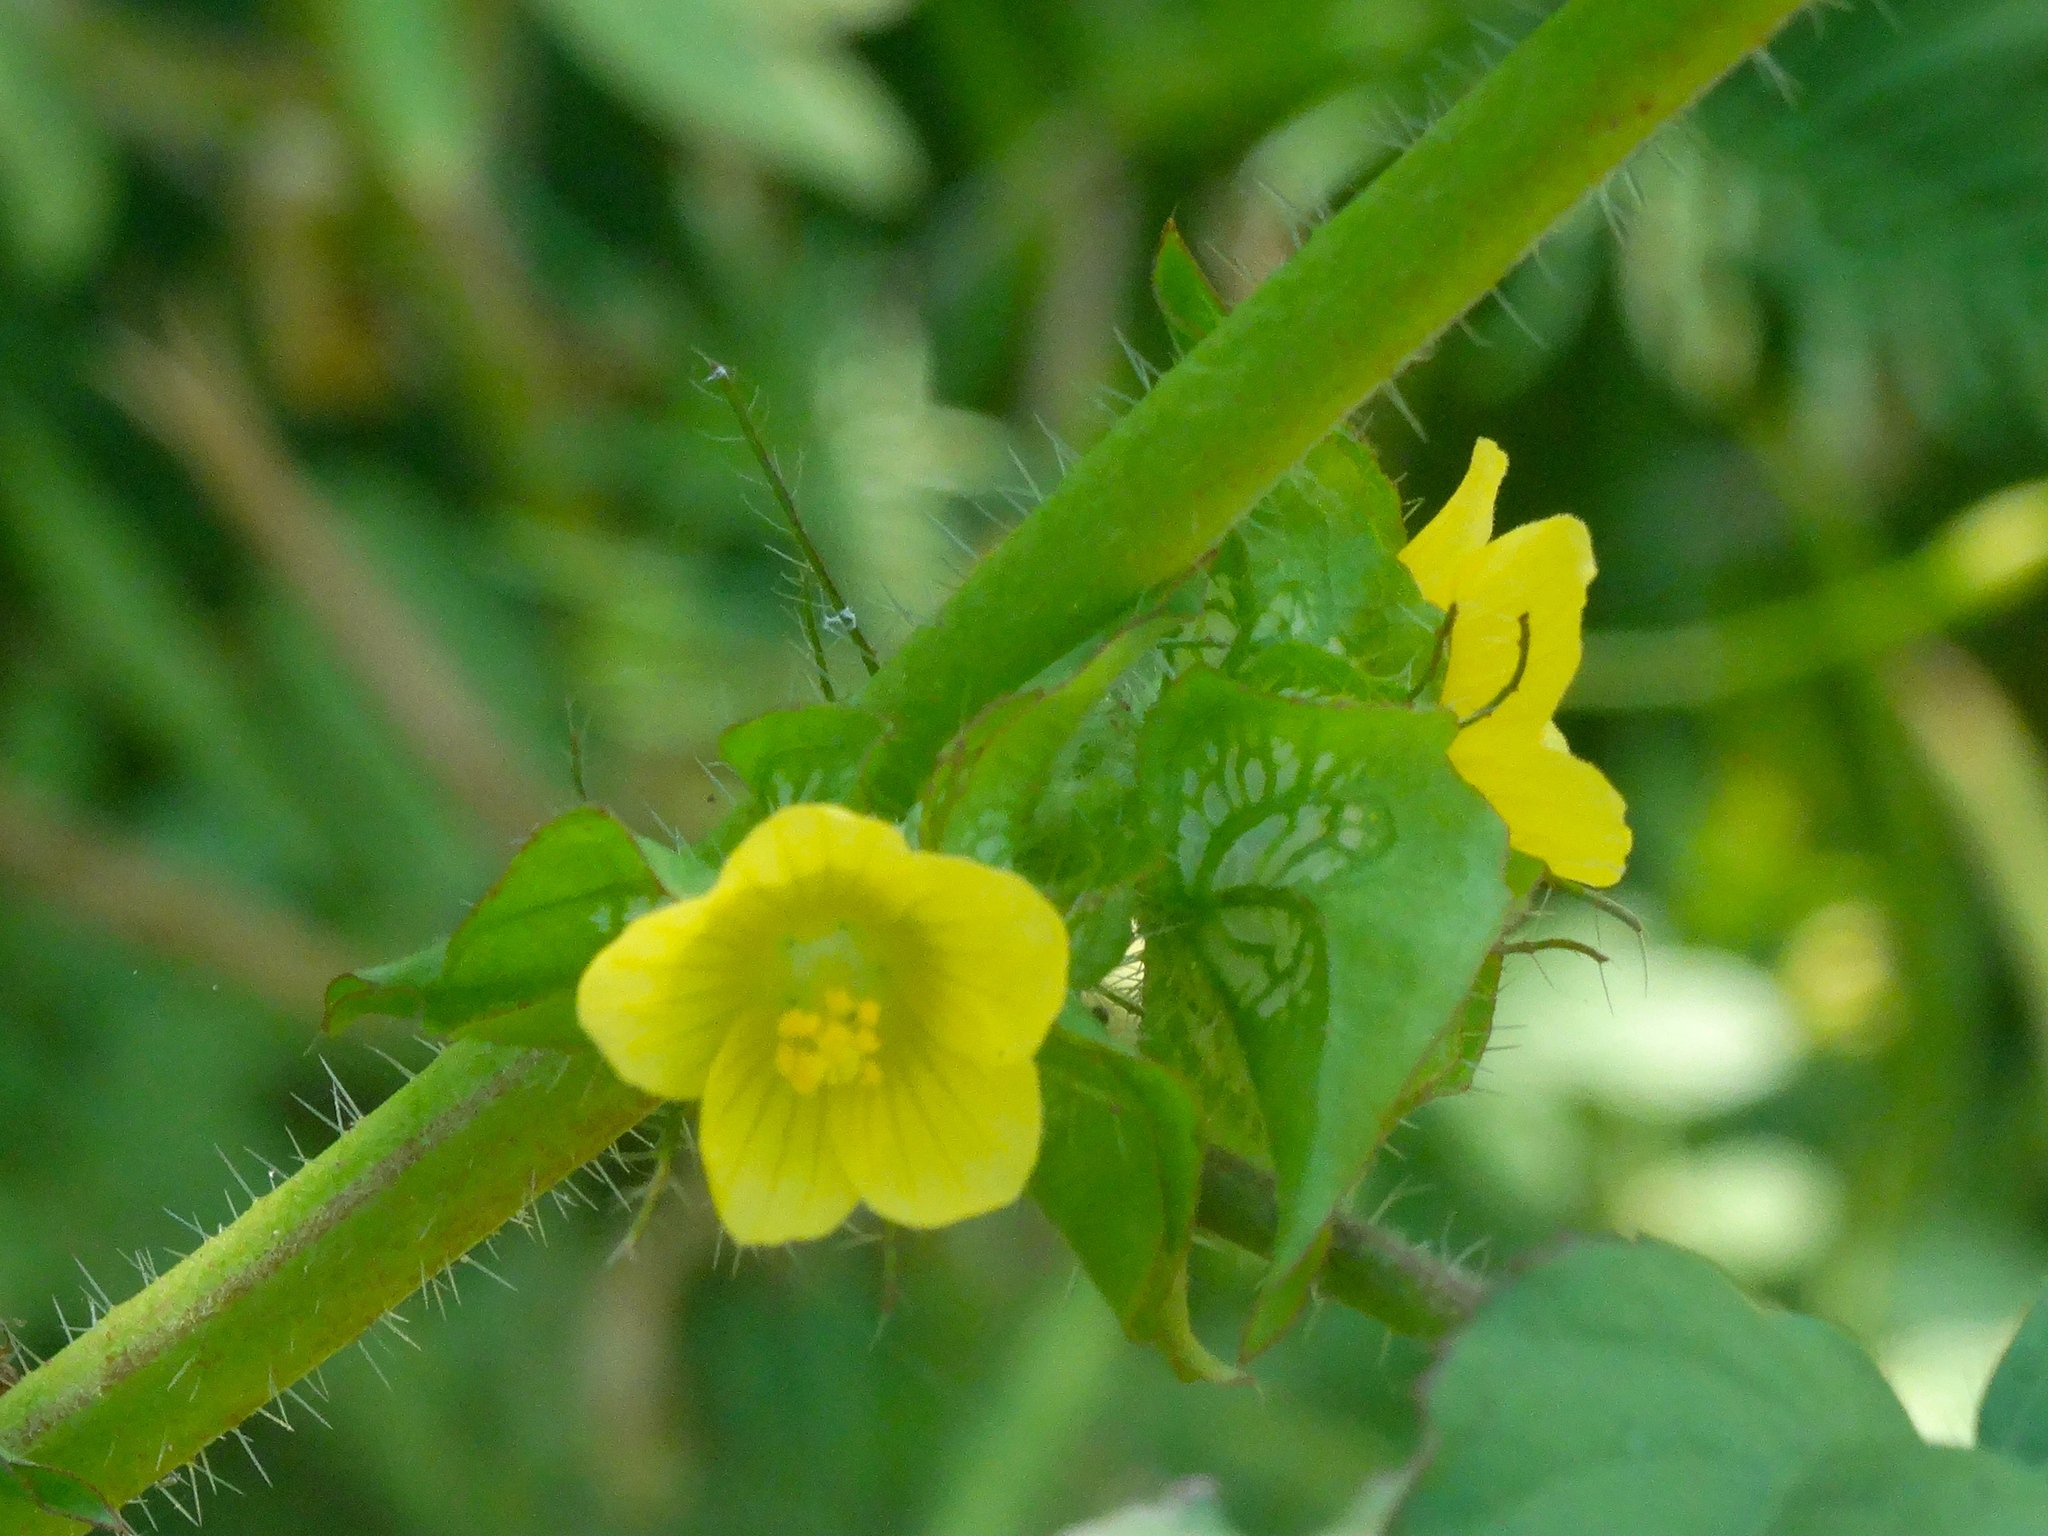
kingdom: Plantae
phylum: Tracheophyta
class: Magnoliopsida
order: Malvales
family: Malvaceae
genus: Malachra
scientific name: Malachra alceifolia
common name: Yellow leafbract
